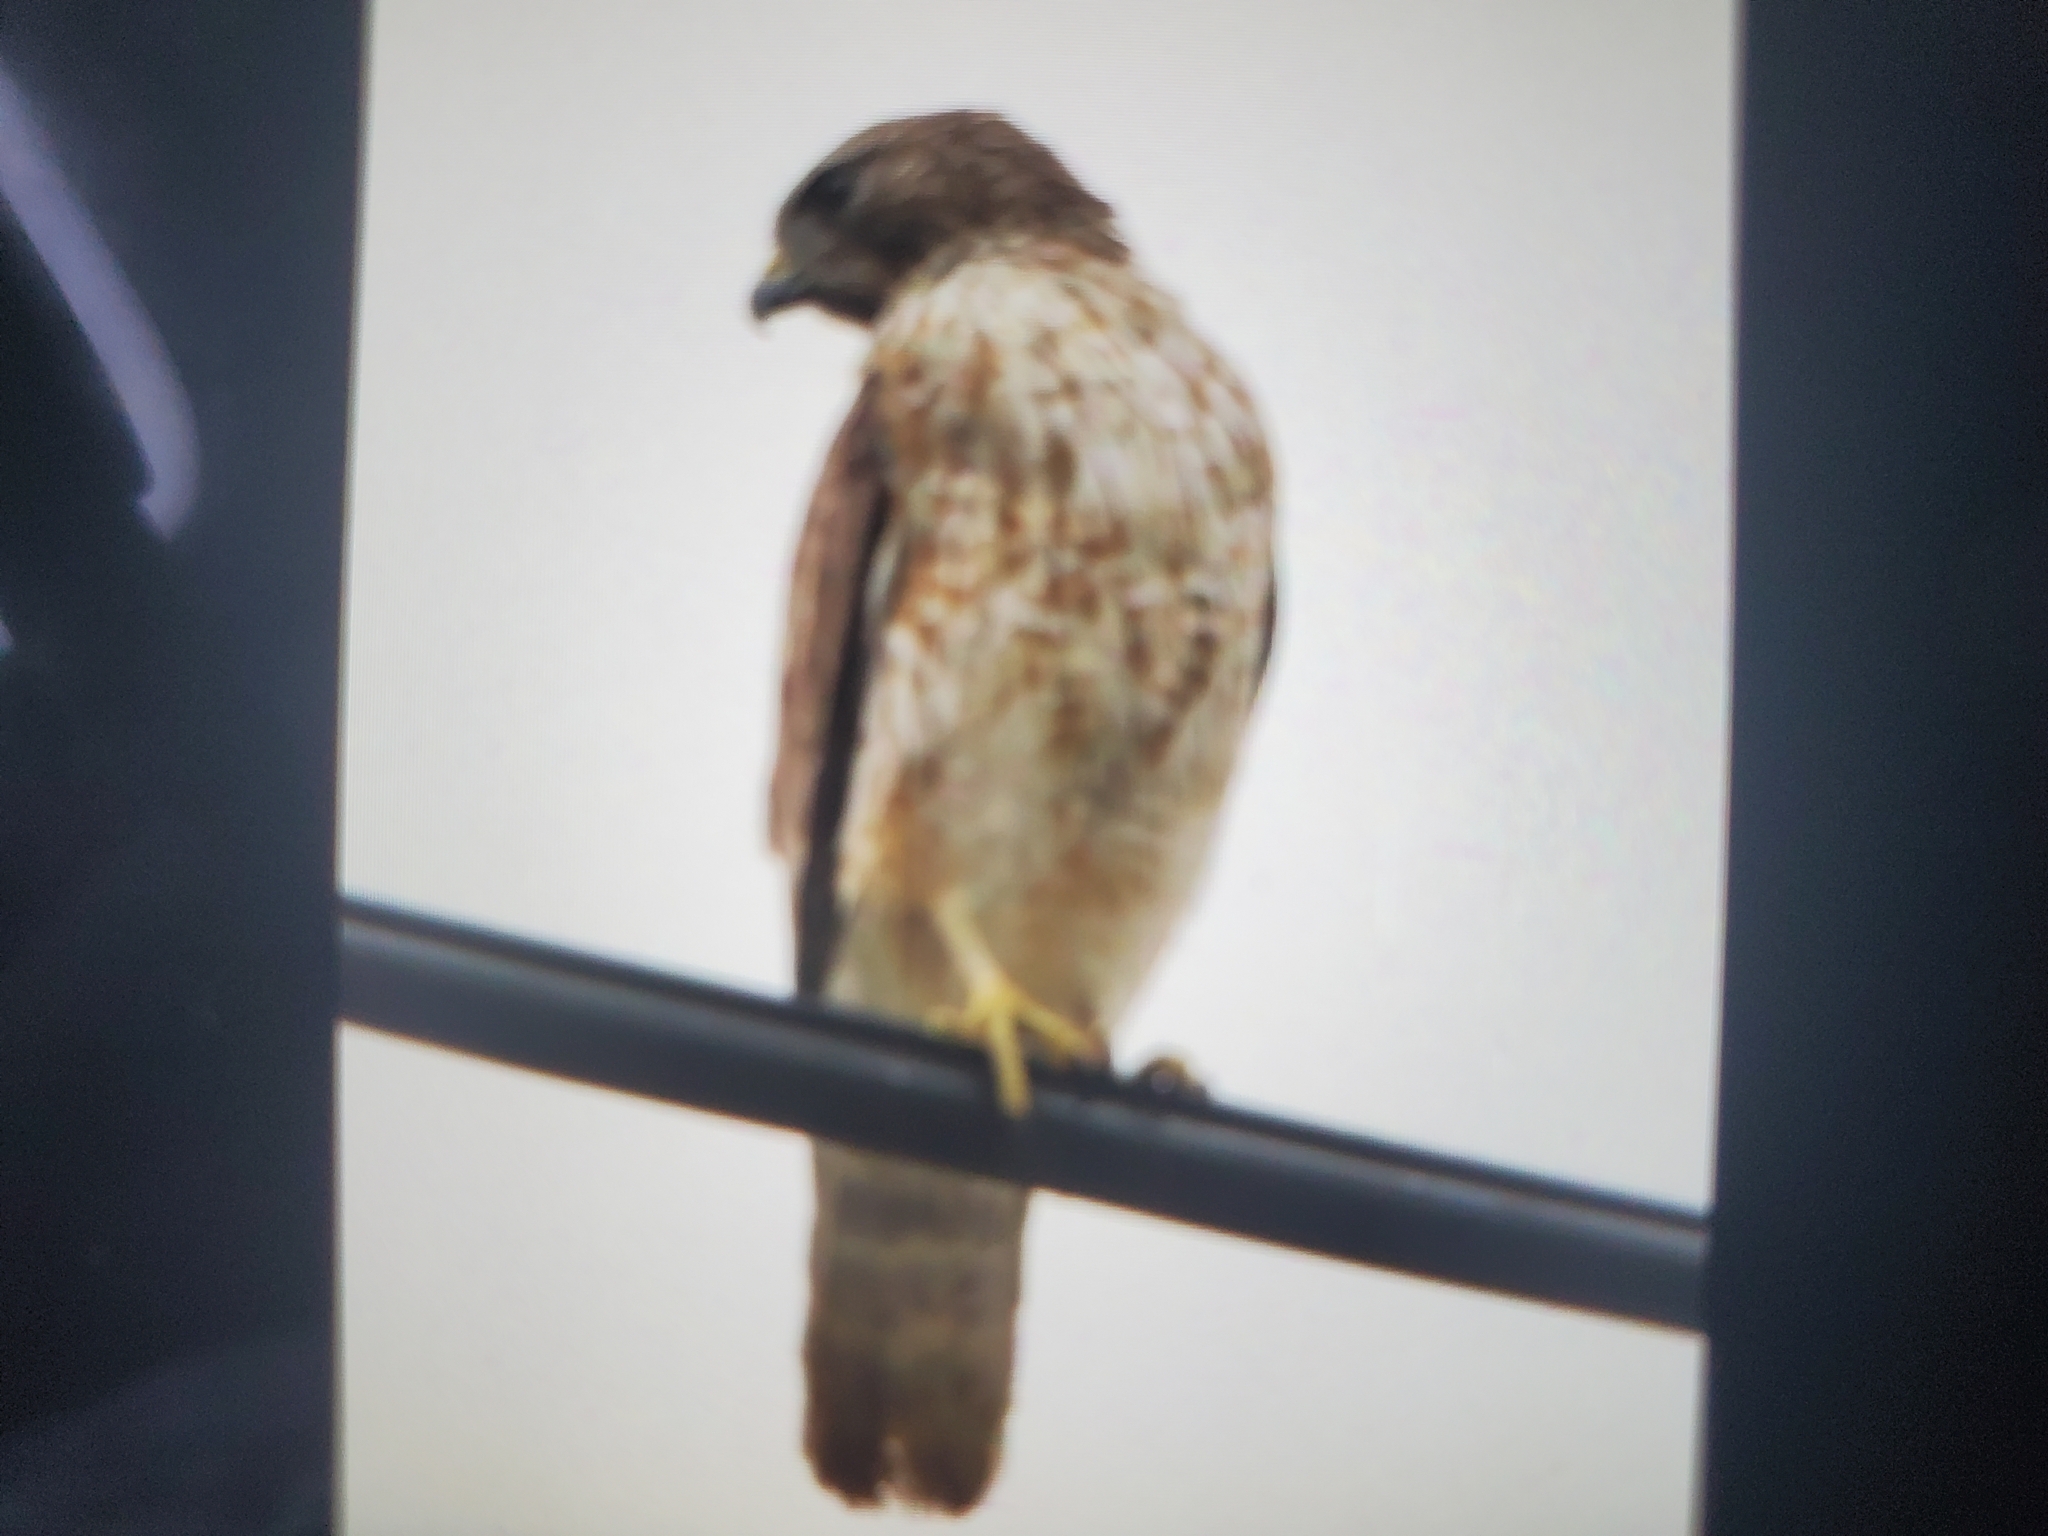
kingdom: Animalia
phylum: Chordata
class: Aves
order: Accipitriformes
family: Accipitridae
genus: Buteo
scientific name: Buteo lineatus
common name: Red-shouldered hawk
